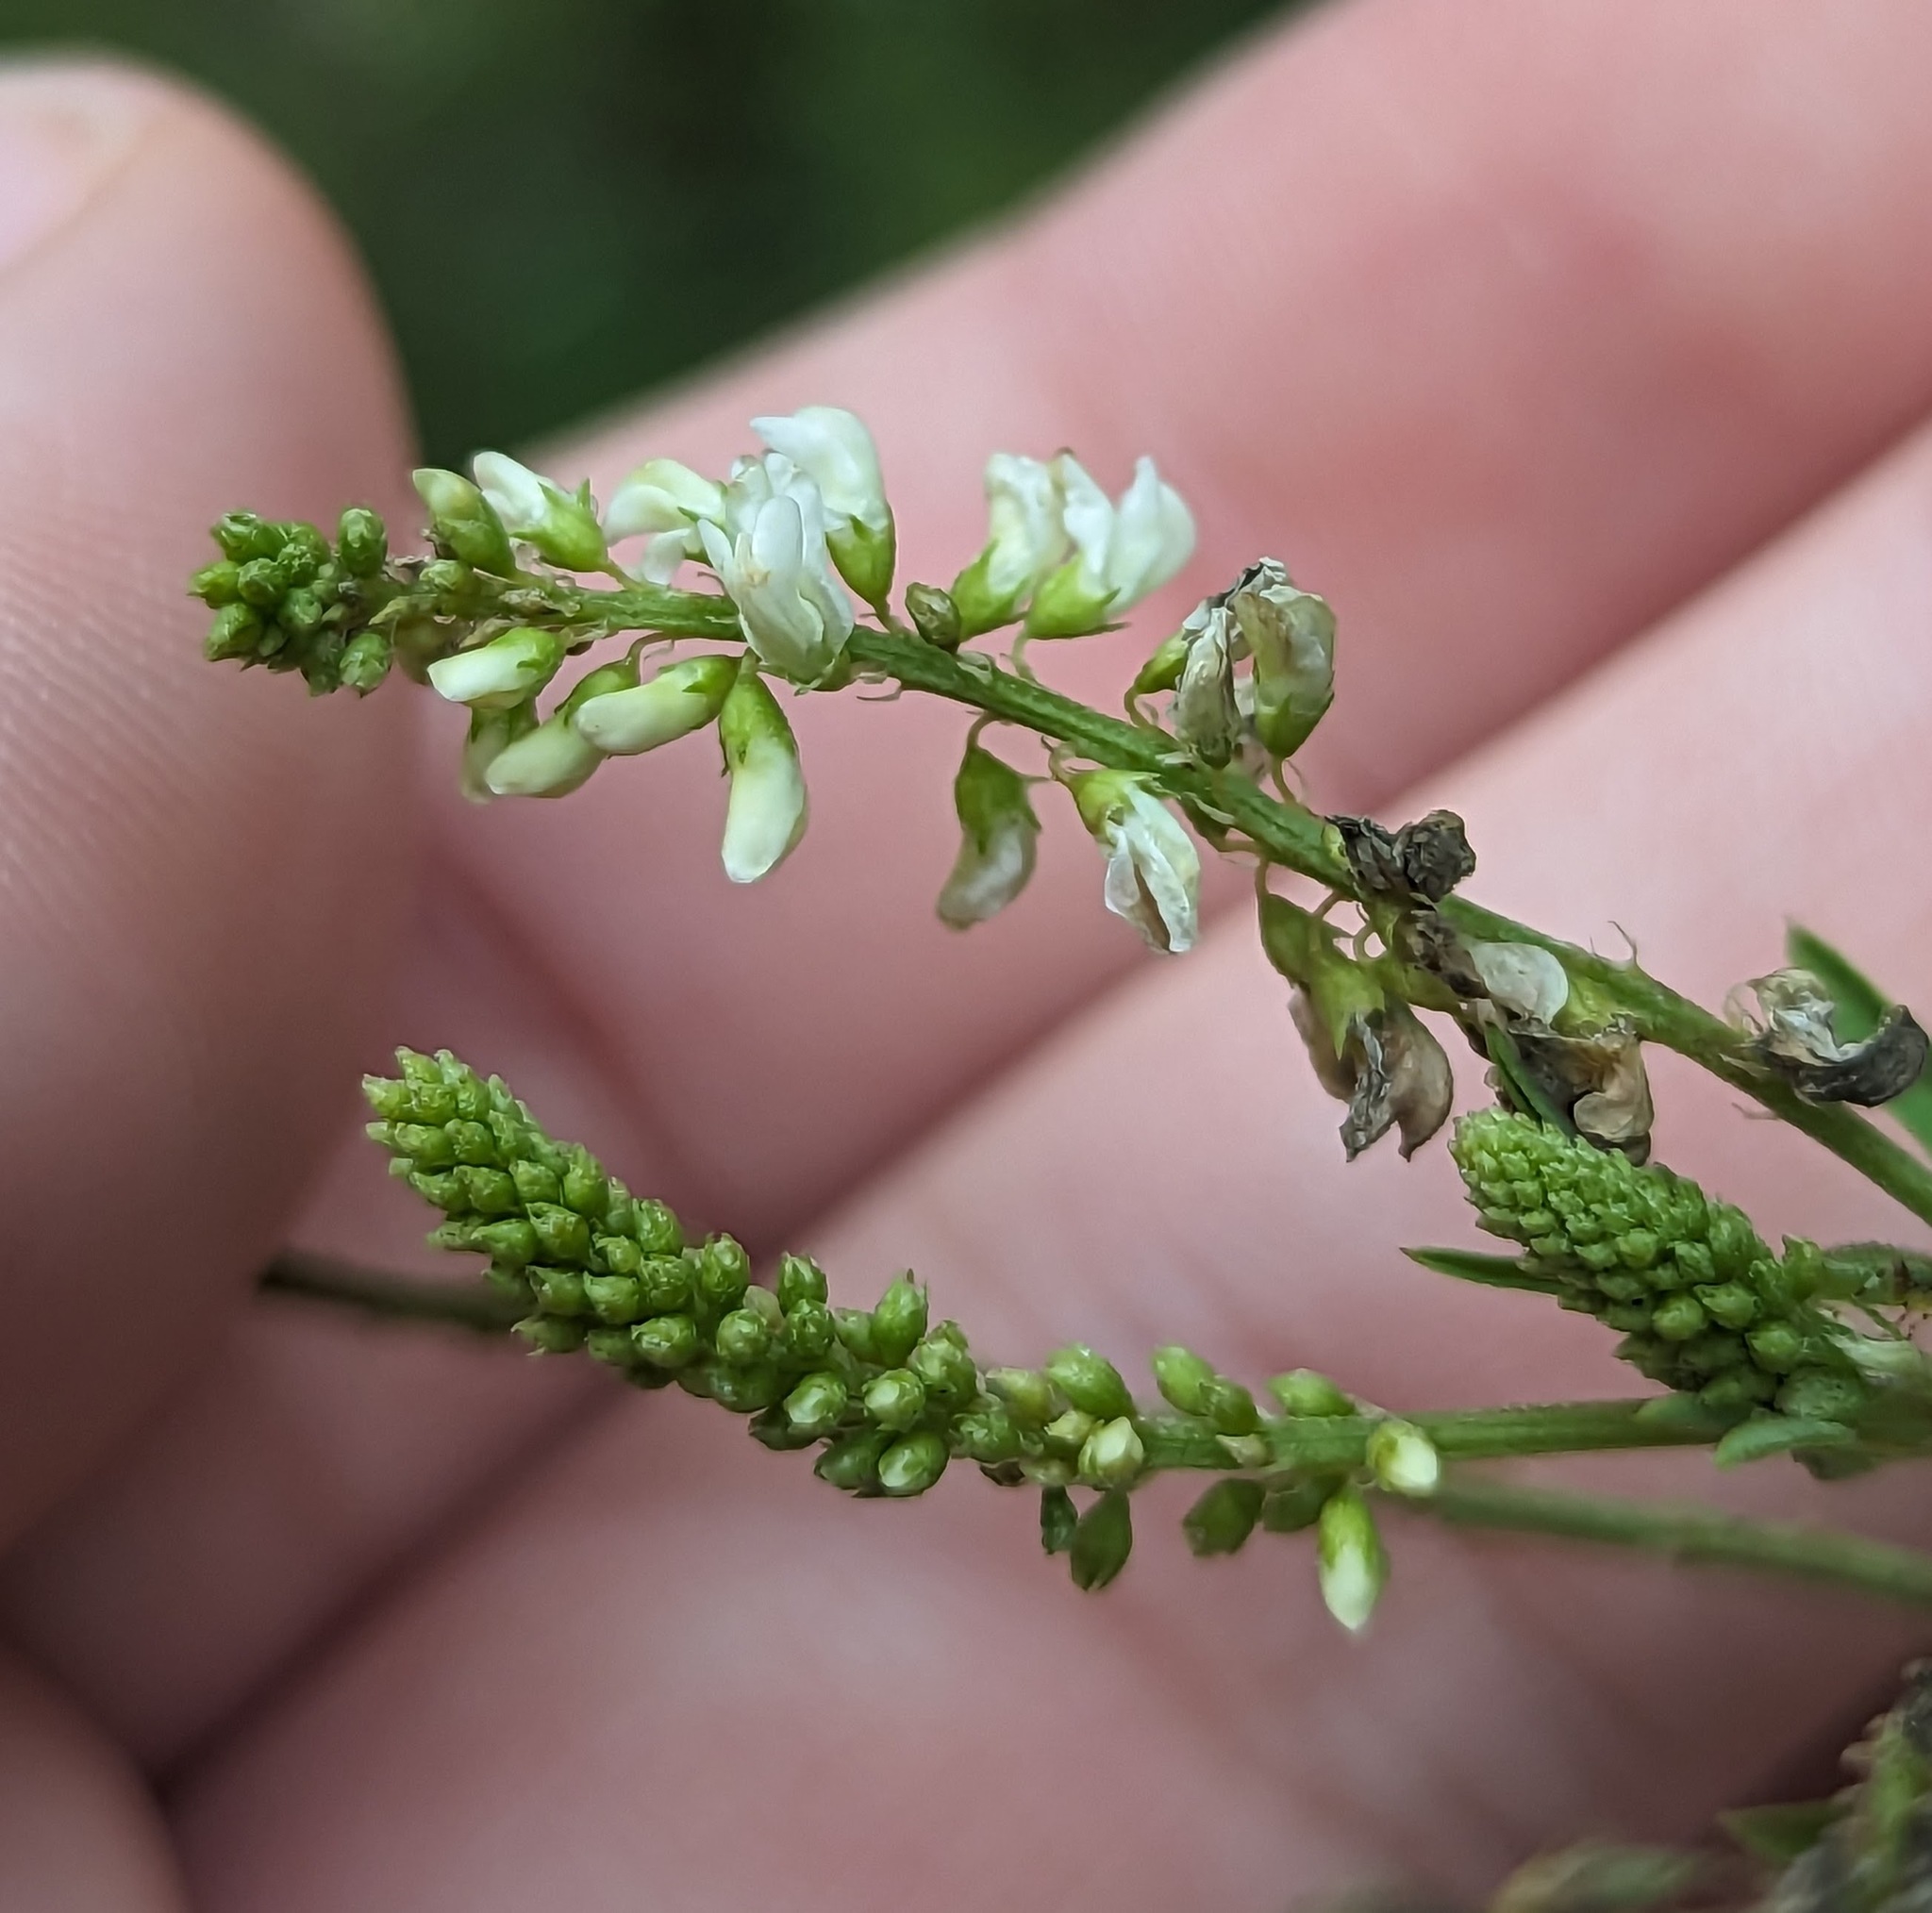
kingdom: Plantae
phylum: Tracheophyta
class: Magnoliopsida
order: Fabales
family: Fabaceae
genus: Melilotus
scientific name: Melilotus albus
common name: White melilot
